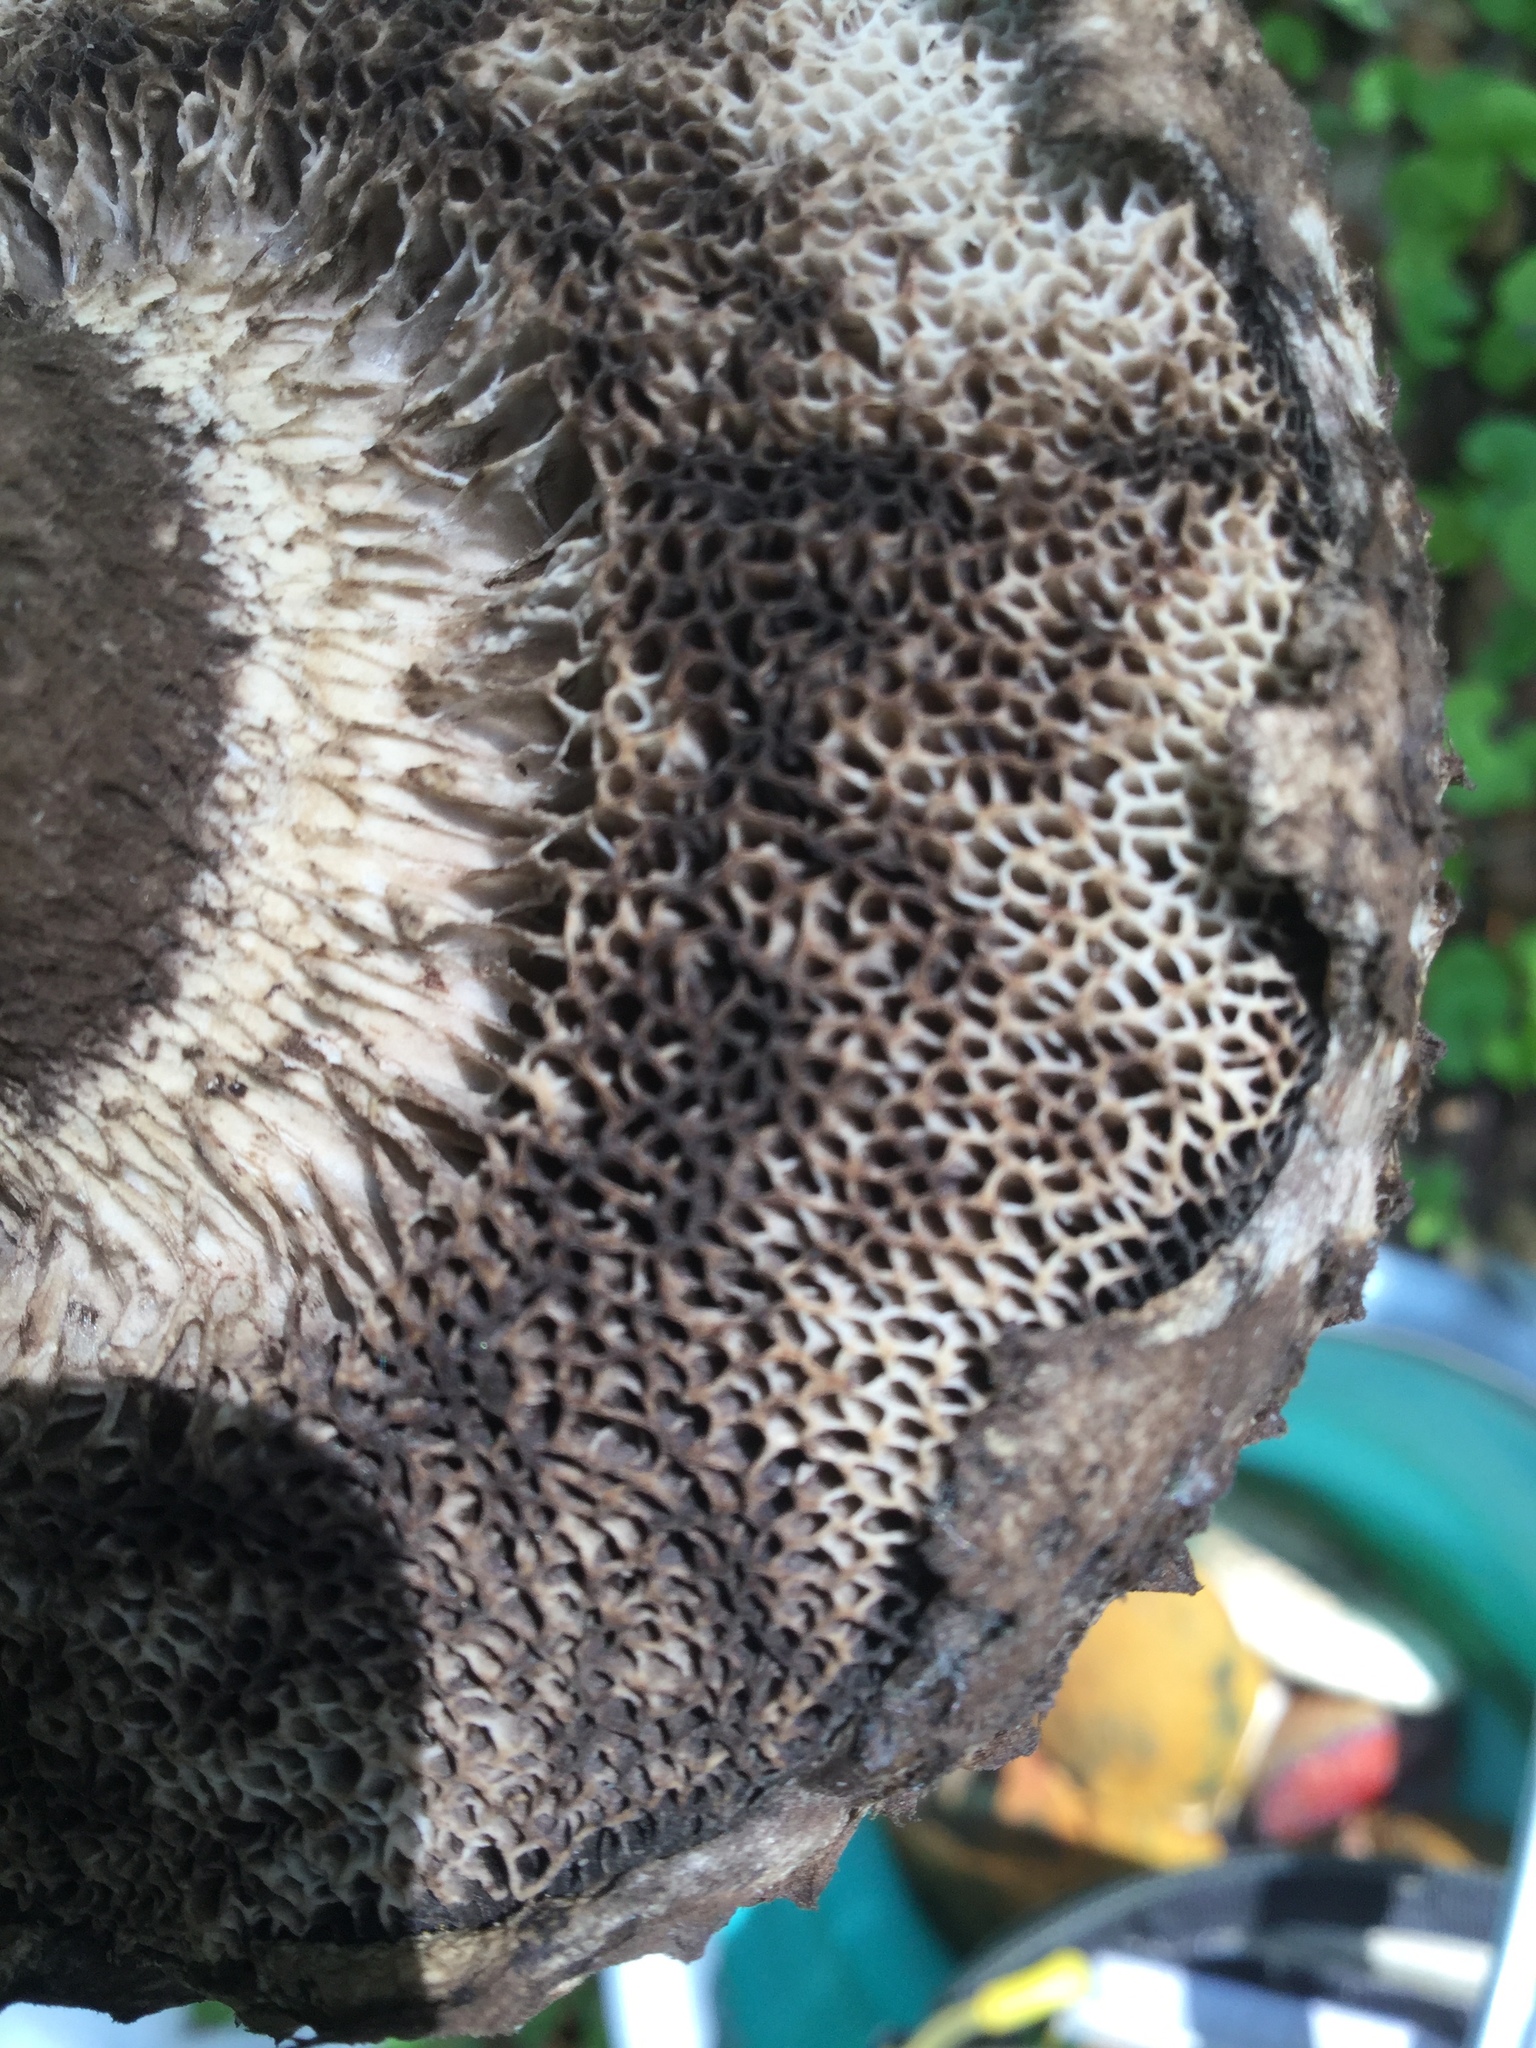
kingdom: Fungi
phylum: Basidiomycota
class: Agaricomycetes
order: Boletales
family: Boletaceae
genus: Strobilomyces
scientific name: Strobilomyces strobilaceus
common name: Old man of the woods
